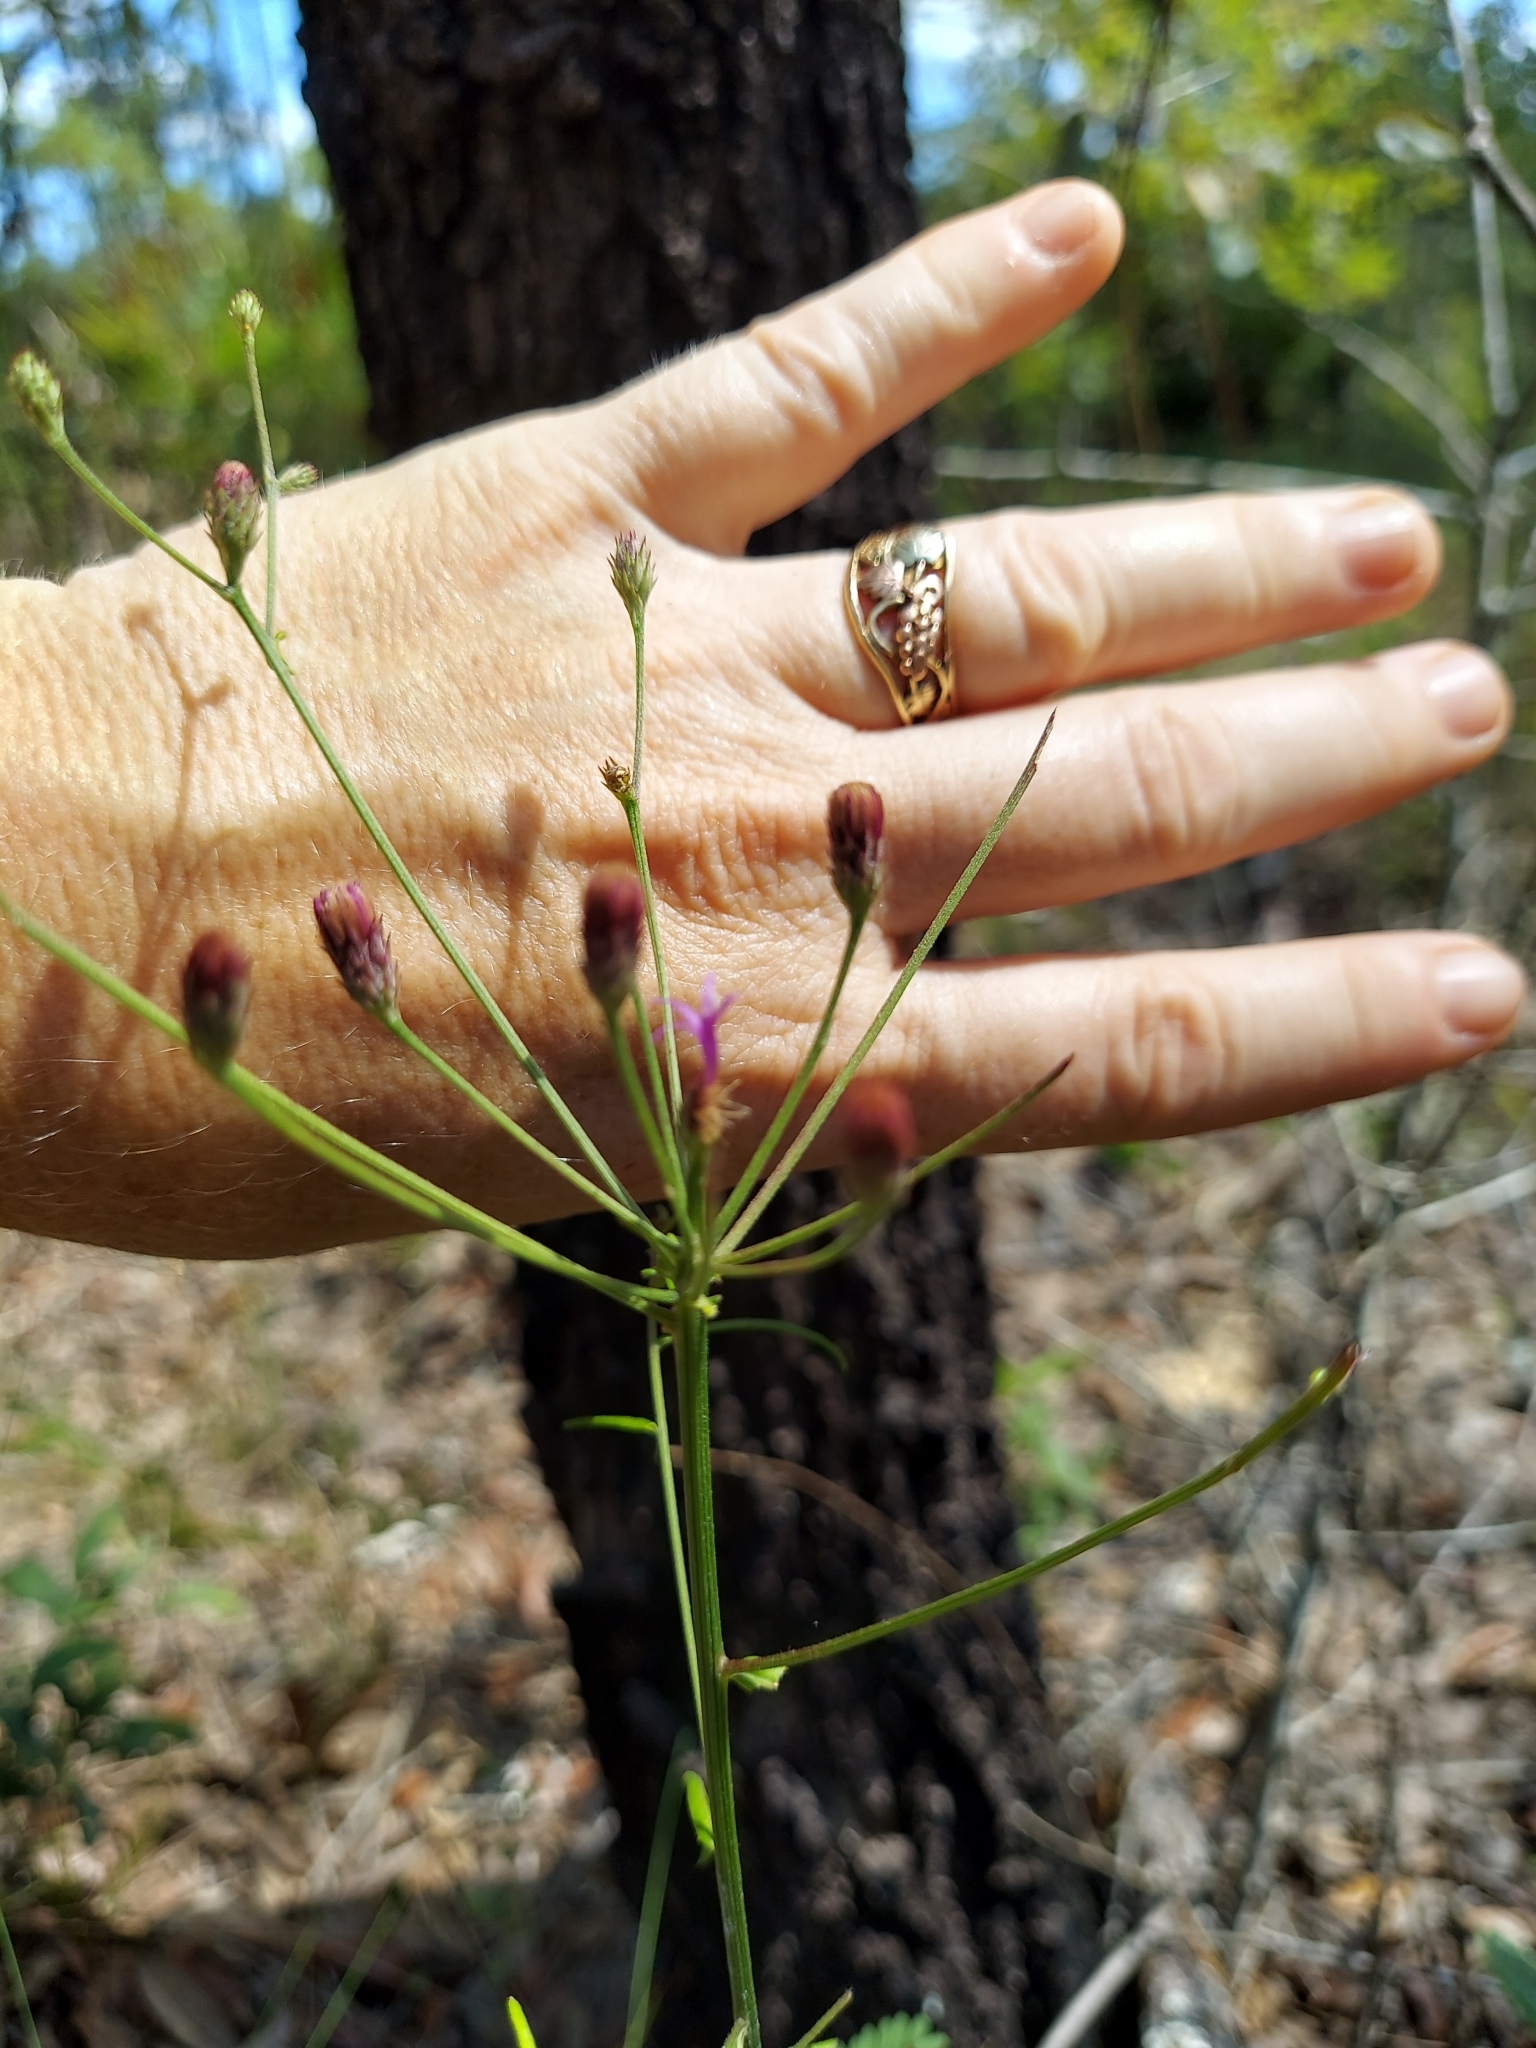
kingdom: Plantae
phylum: Tracheophyta
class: Magnoliopsida
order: Asterales
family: Asteraceae
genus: Vernonia
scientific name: Vernonia angustifolia
